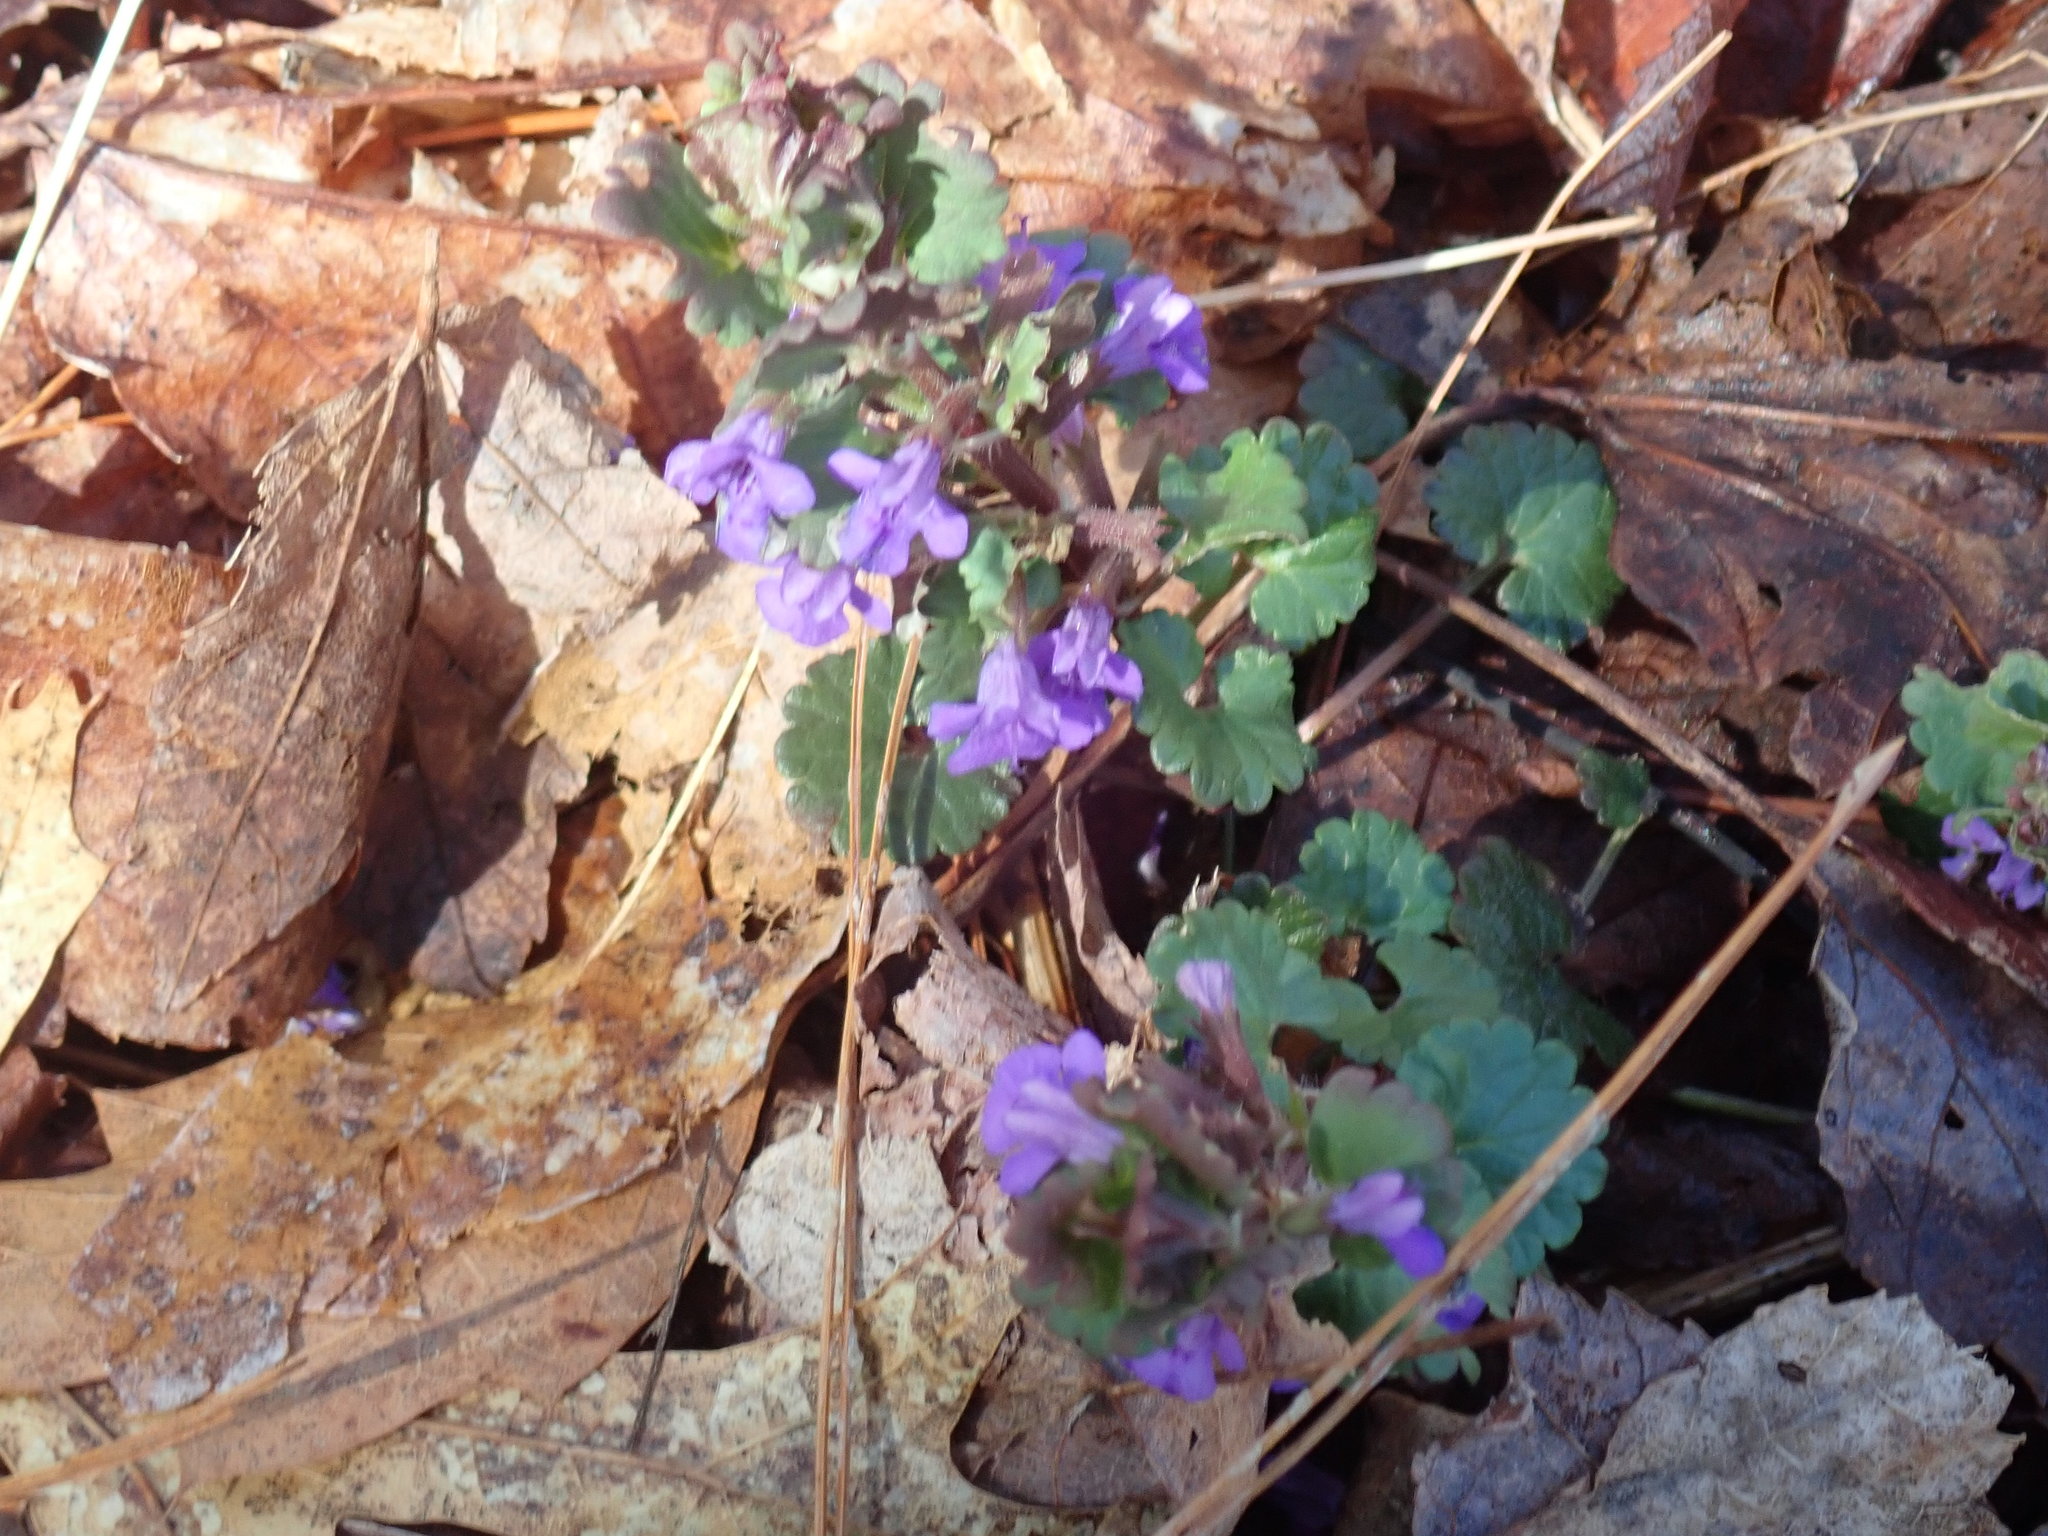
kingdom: Plantae
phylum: Tracheophyta
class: Magnoliopsida
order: Lamiales
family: Lamiaceae
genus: Glechoma
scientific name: Glechoma hederacea
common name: Ground ivy
